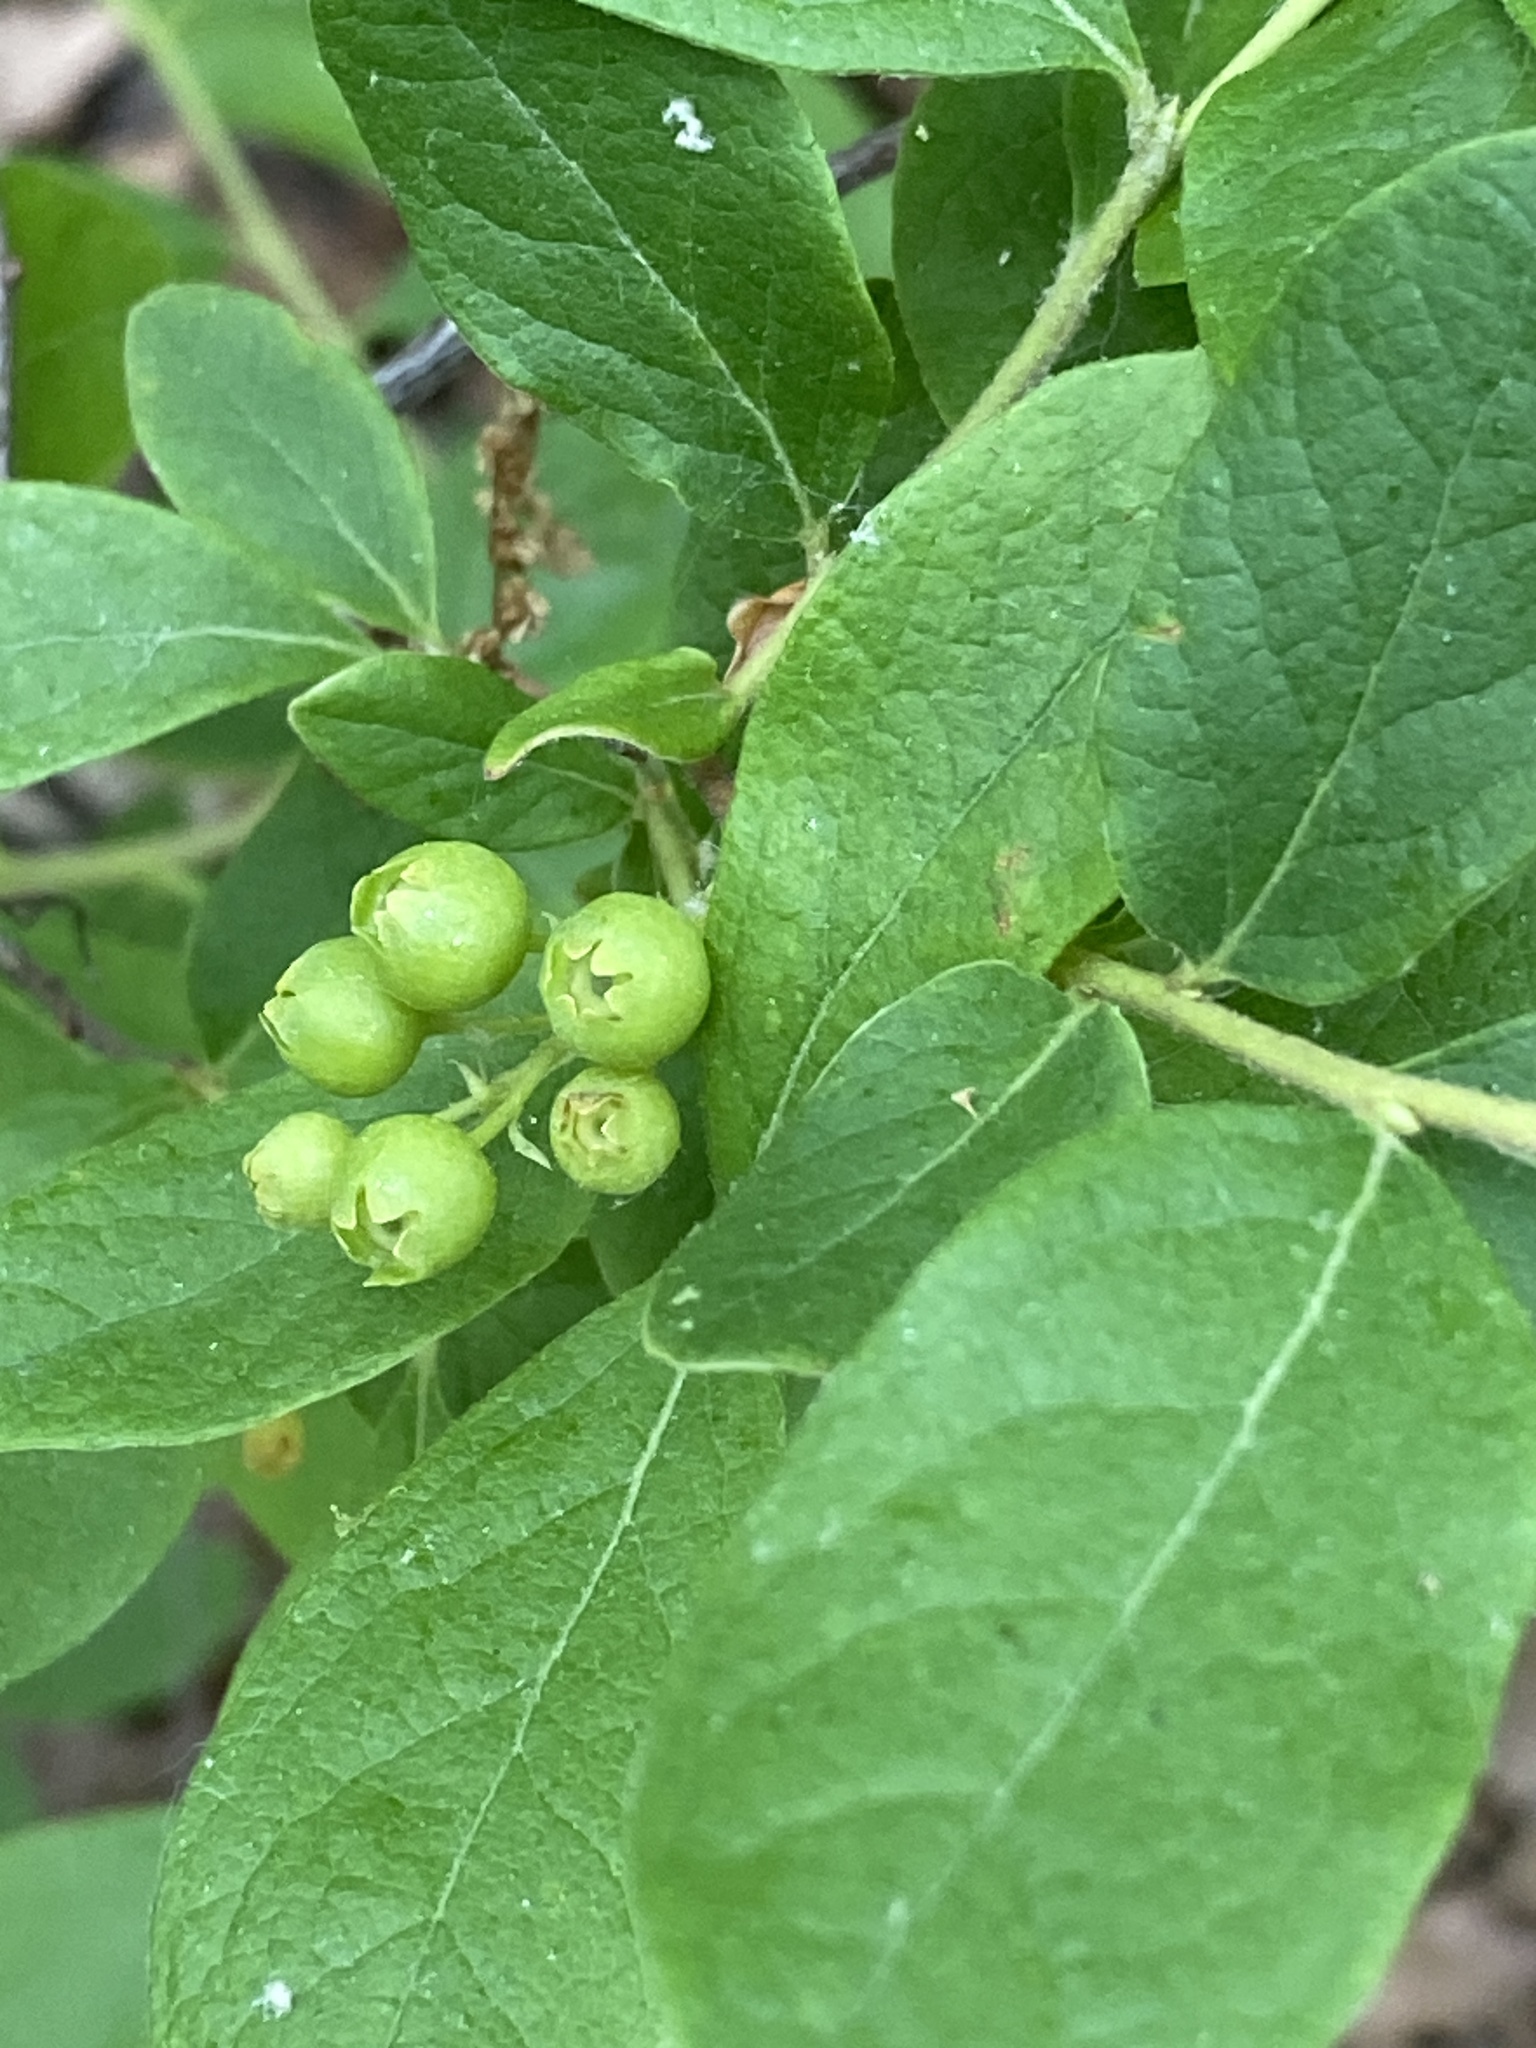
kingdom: Plantae
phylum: Tracheophyta
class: Magnoliopsida
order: Ericales
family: Ericaceae
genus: Gaylussacia
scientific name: Gaylussacia baccata
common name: Black huckleberry
